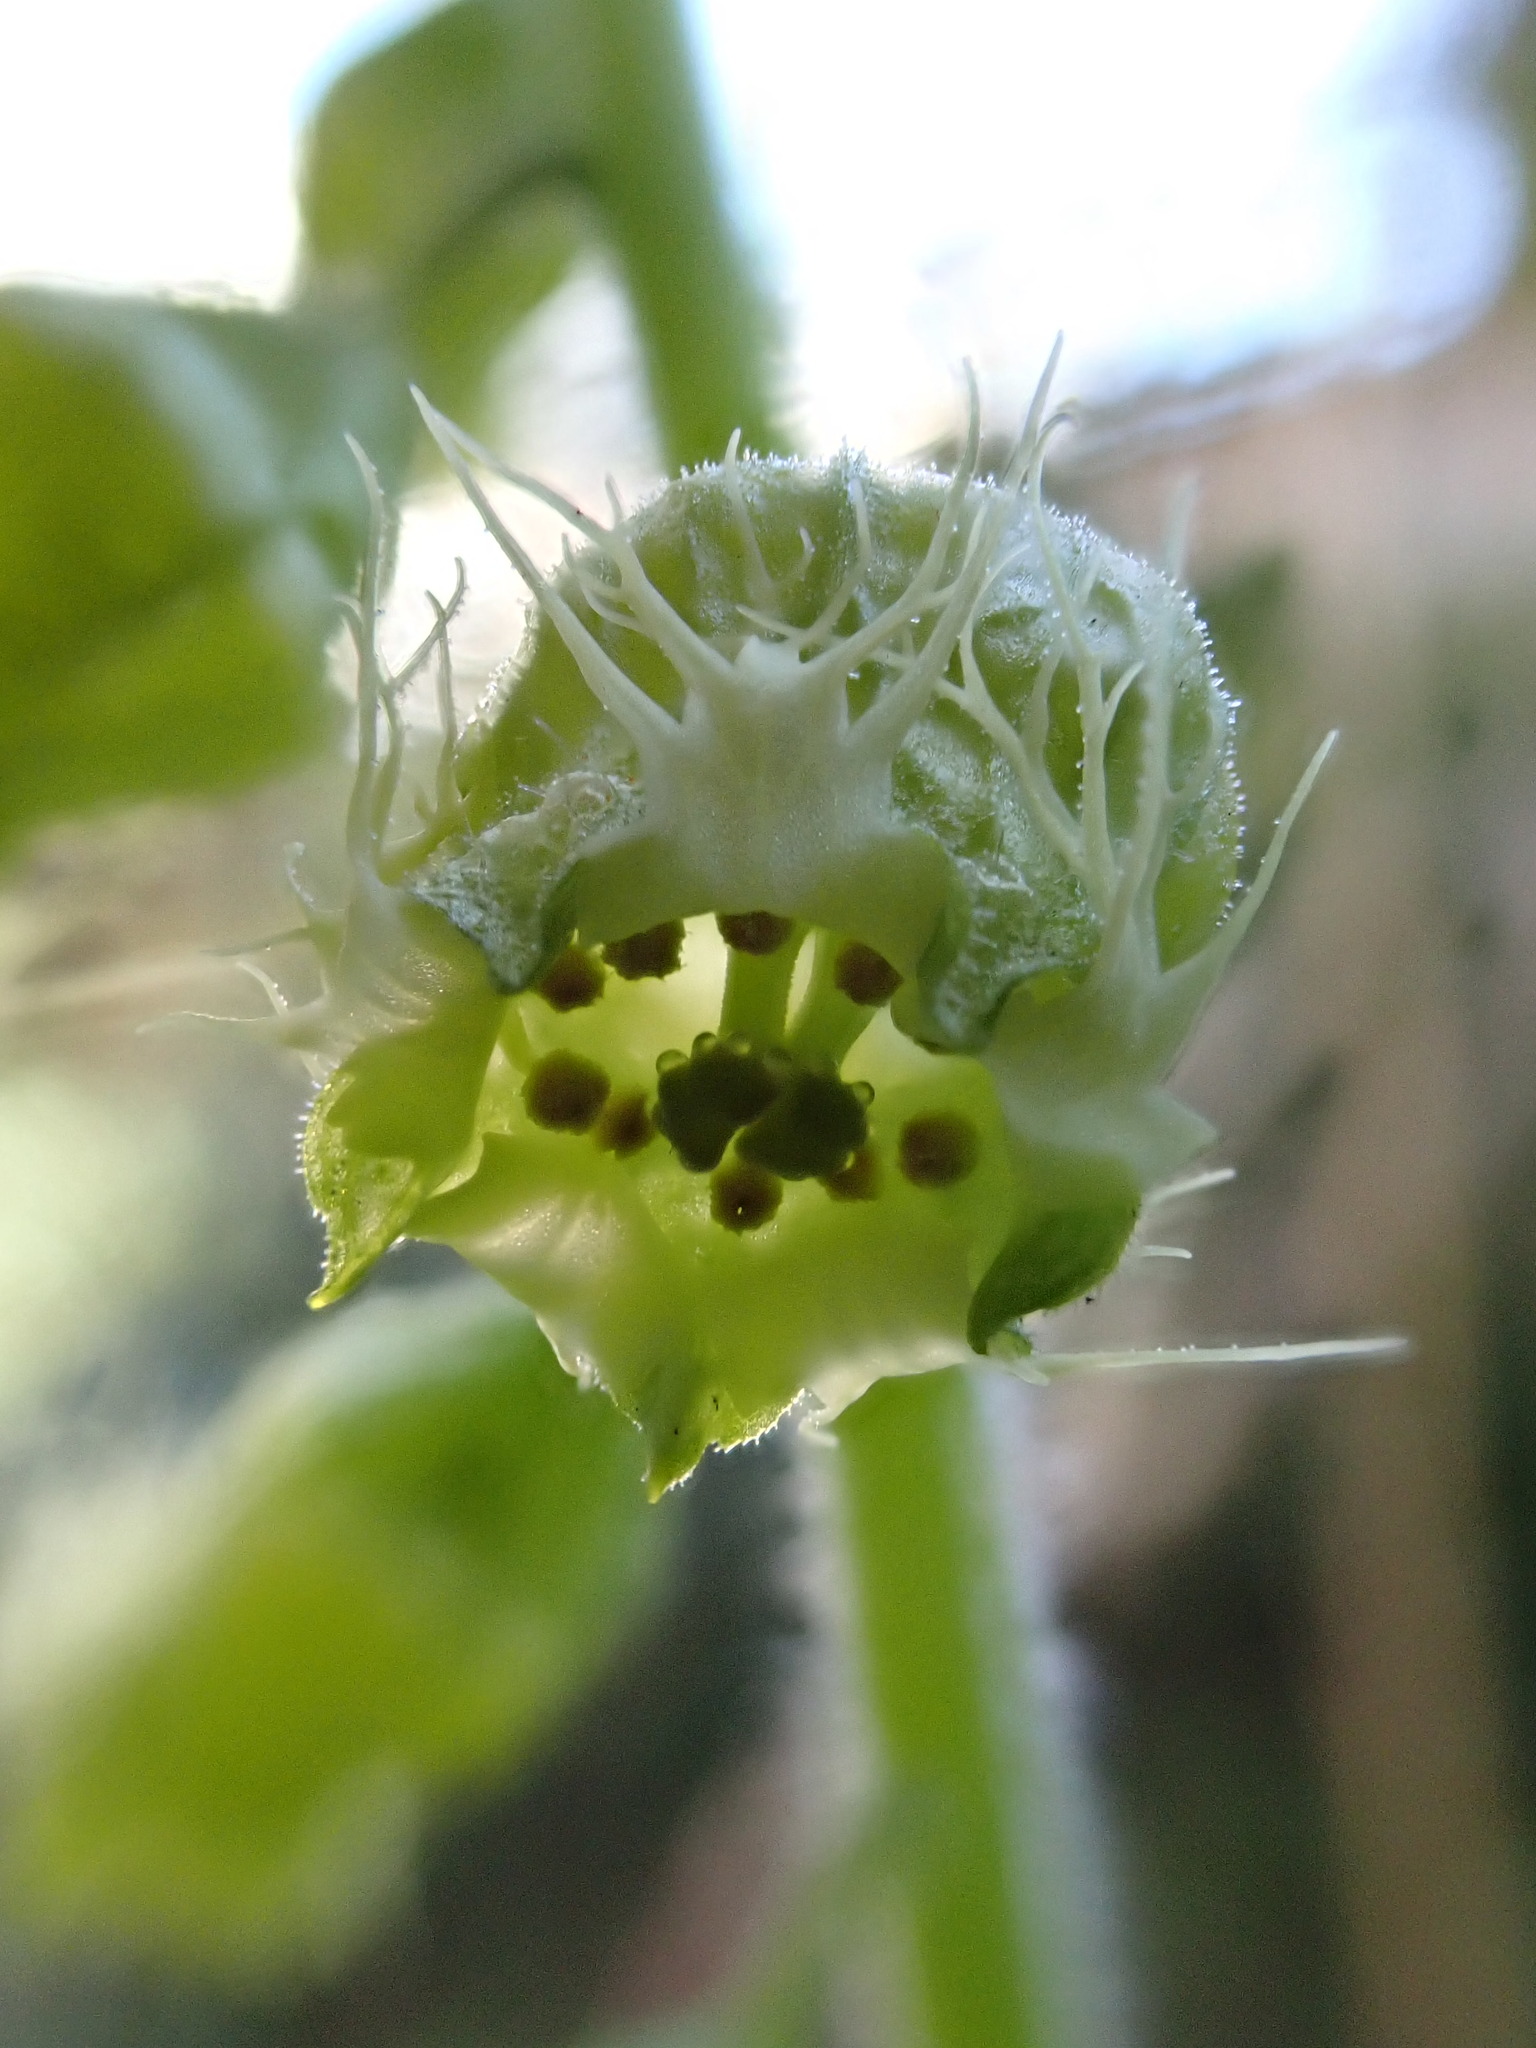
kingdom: Plantae
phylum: Tracheophyta
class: Magnoliopsida
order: Saxifragales
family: Saxifragaceae
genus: Tellima
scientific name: Tellima grandiflora
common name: Fringecups
